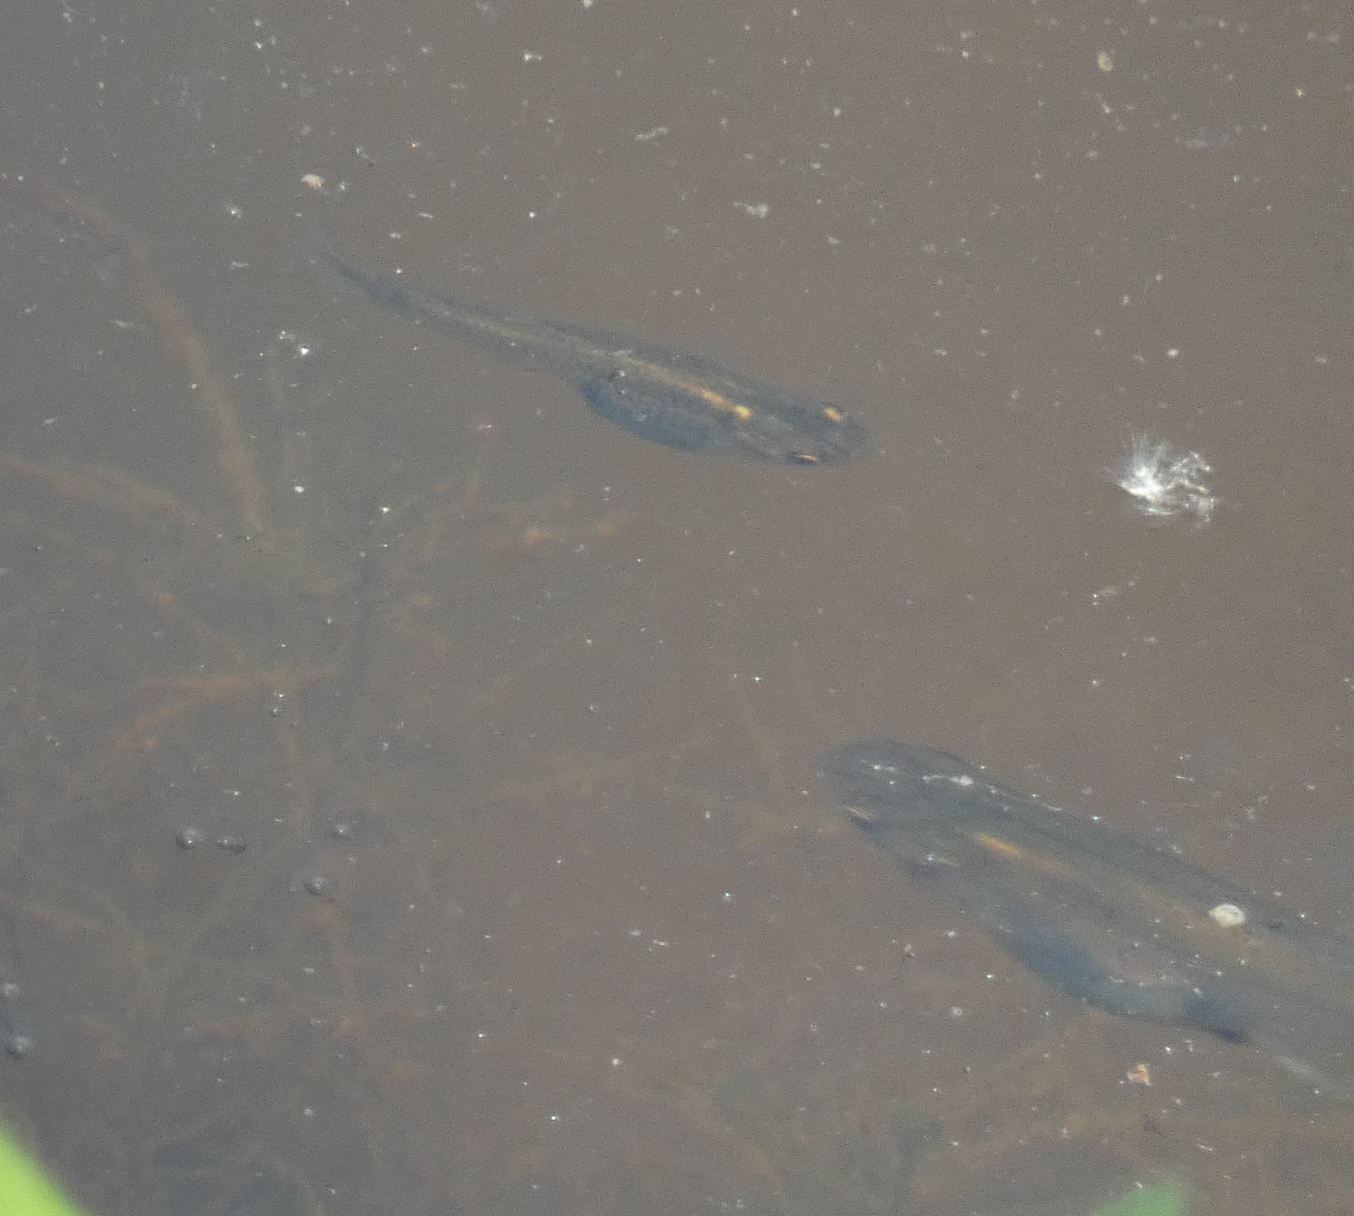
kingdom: Animalia
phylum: Chordata
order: Cyprinodontiformes
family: Poeciliidae
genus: Gambusia
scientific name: Gambusia affinis
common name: Mosquitofish
